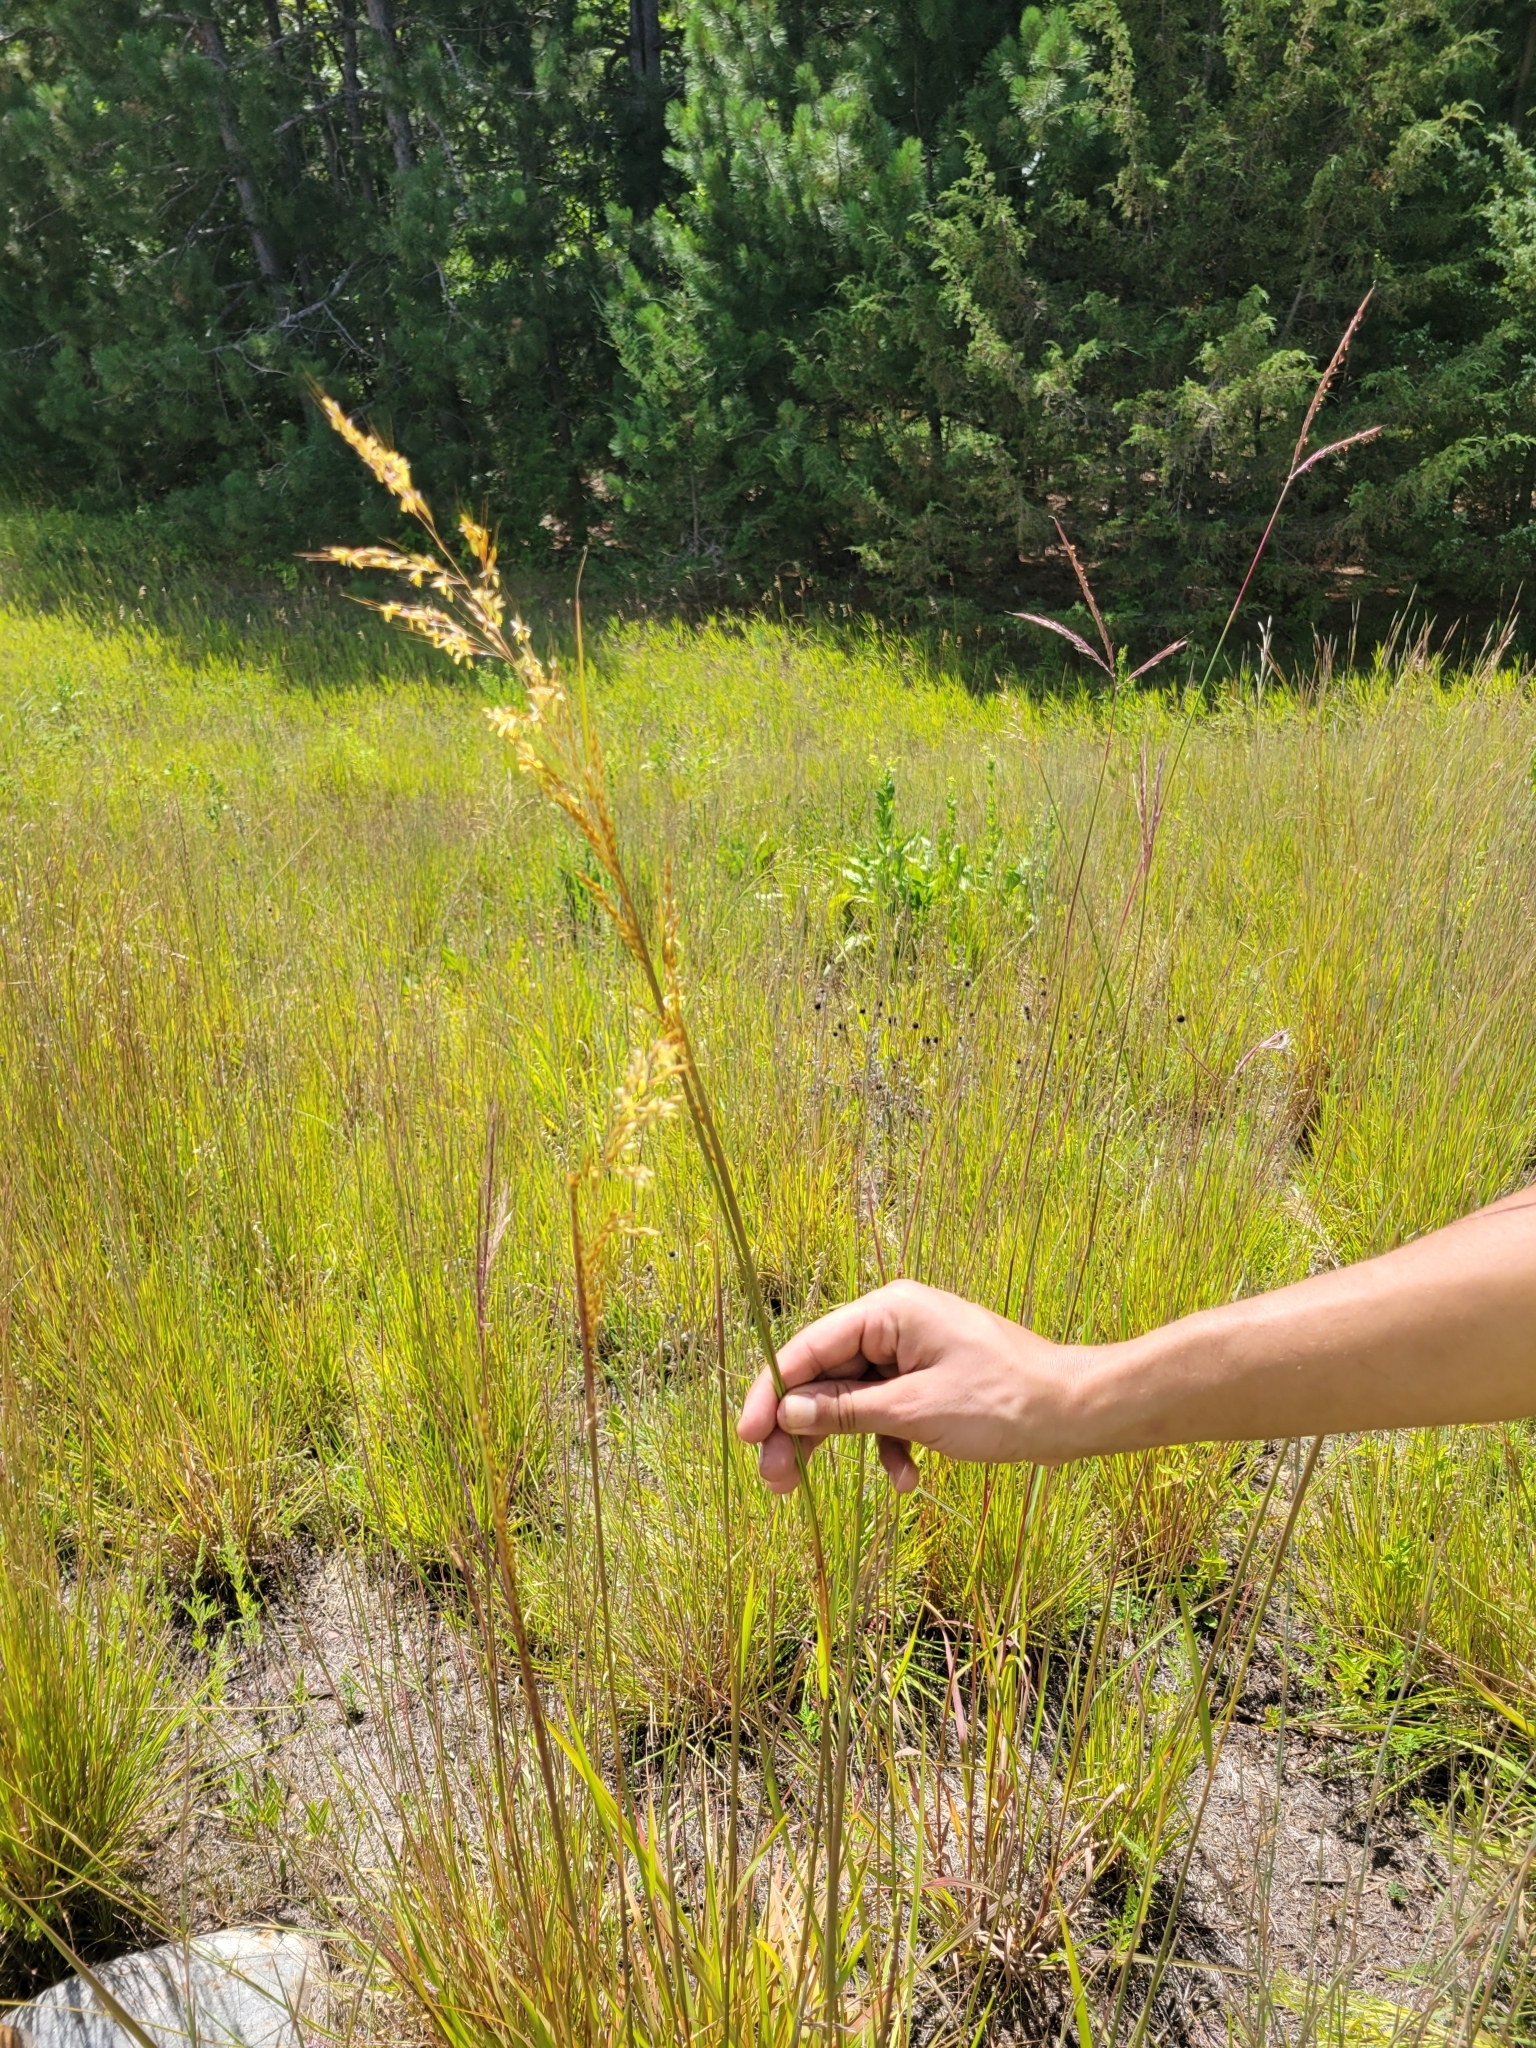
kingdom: Plantae
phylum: Tracheophyta
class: Liliopsida
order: Poales
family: Poaceae
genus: Sorghastrum
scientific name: Sorghastrum nutans
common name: Indian grass
